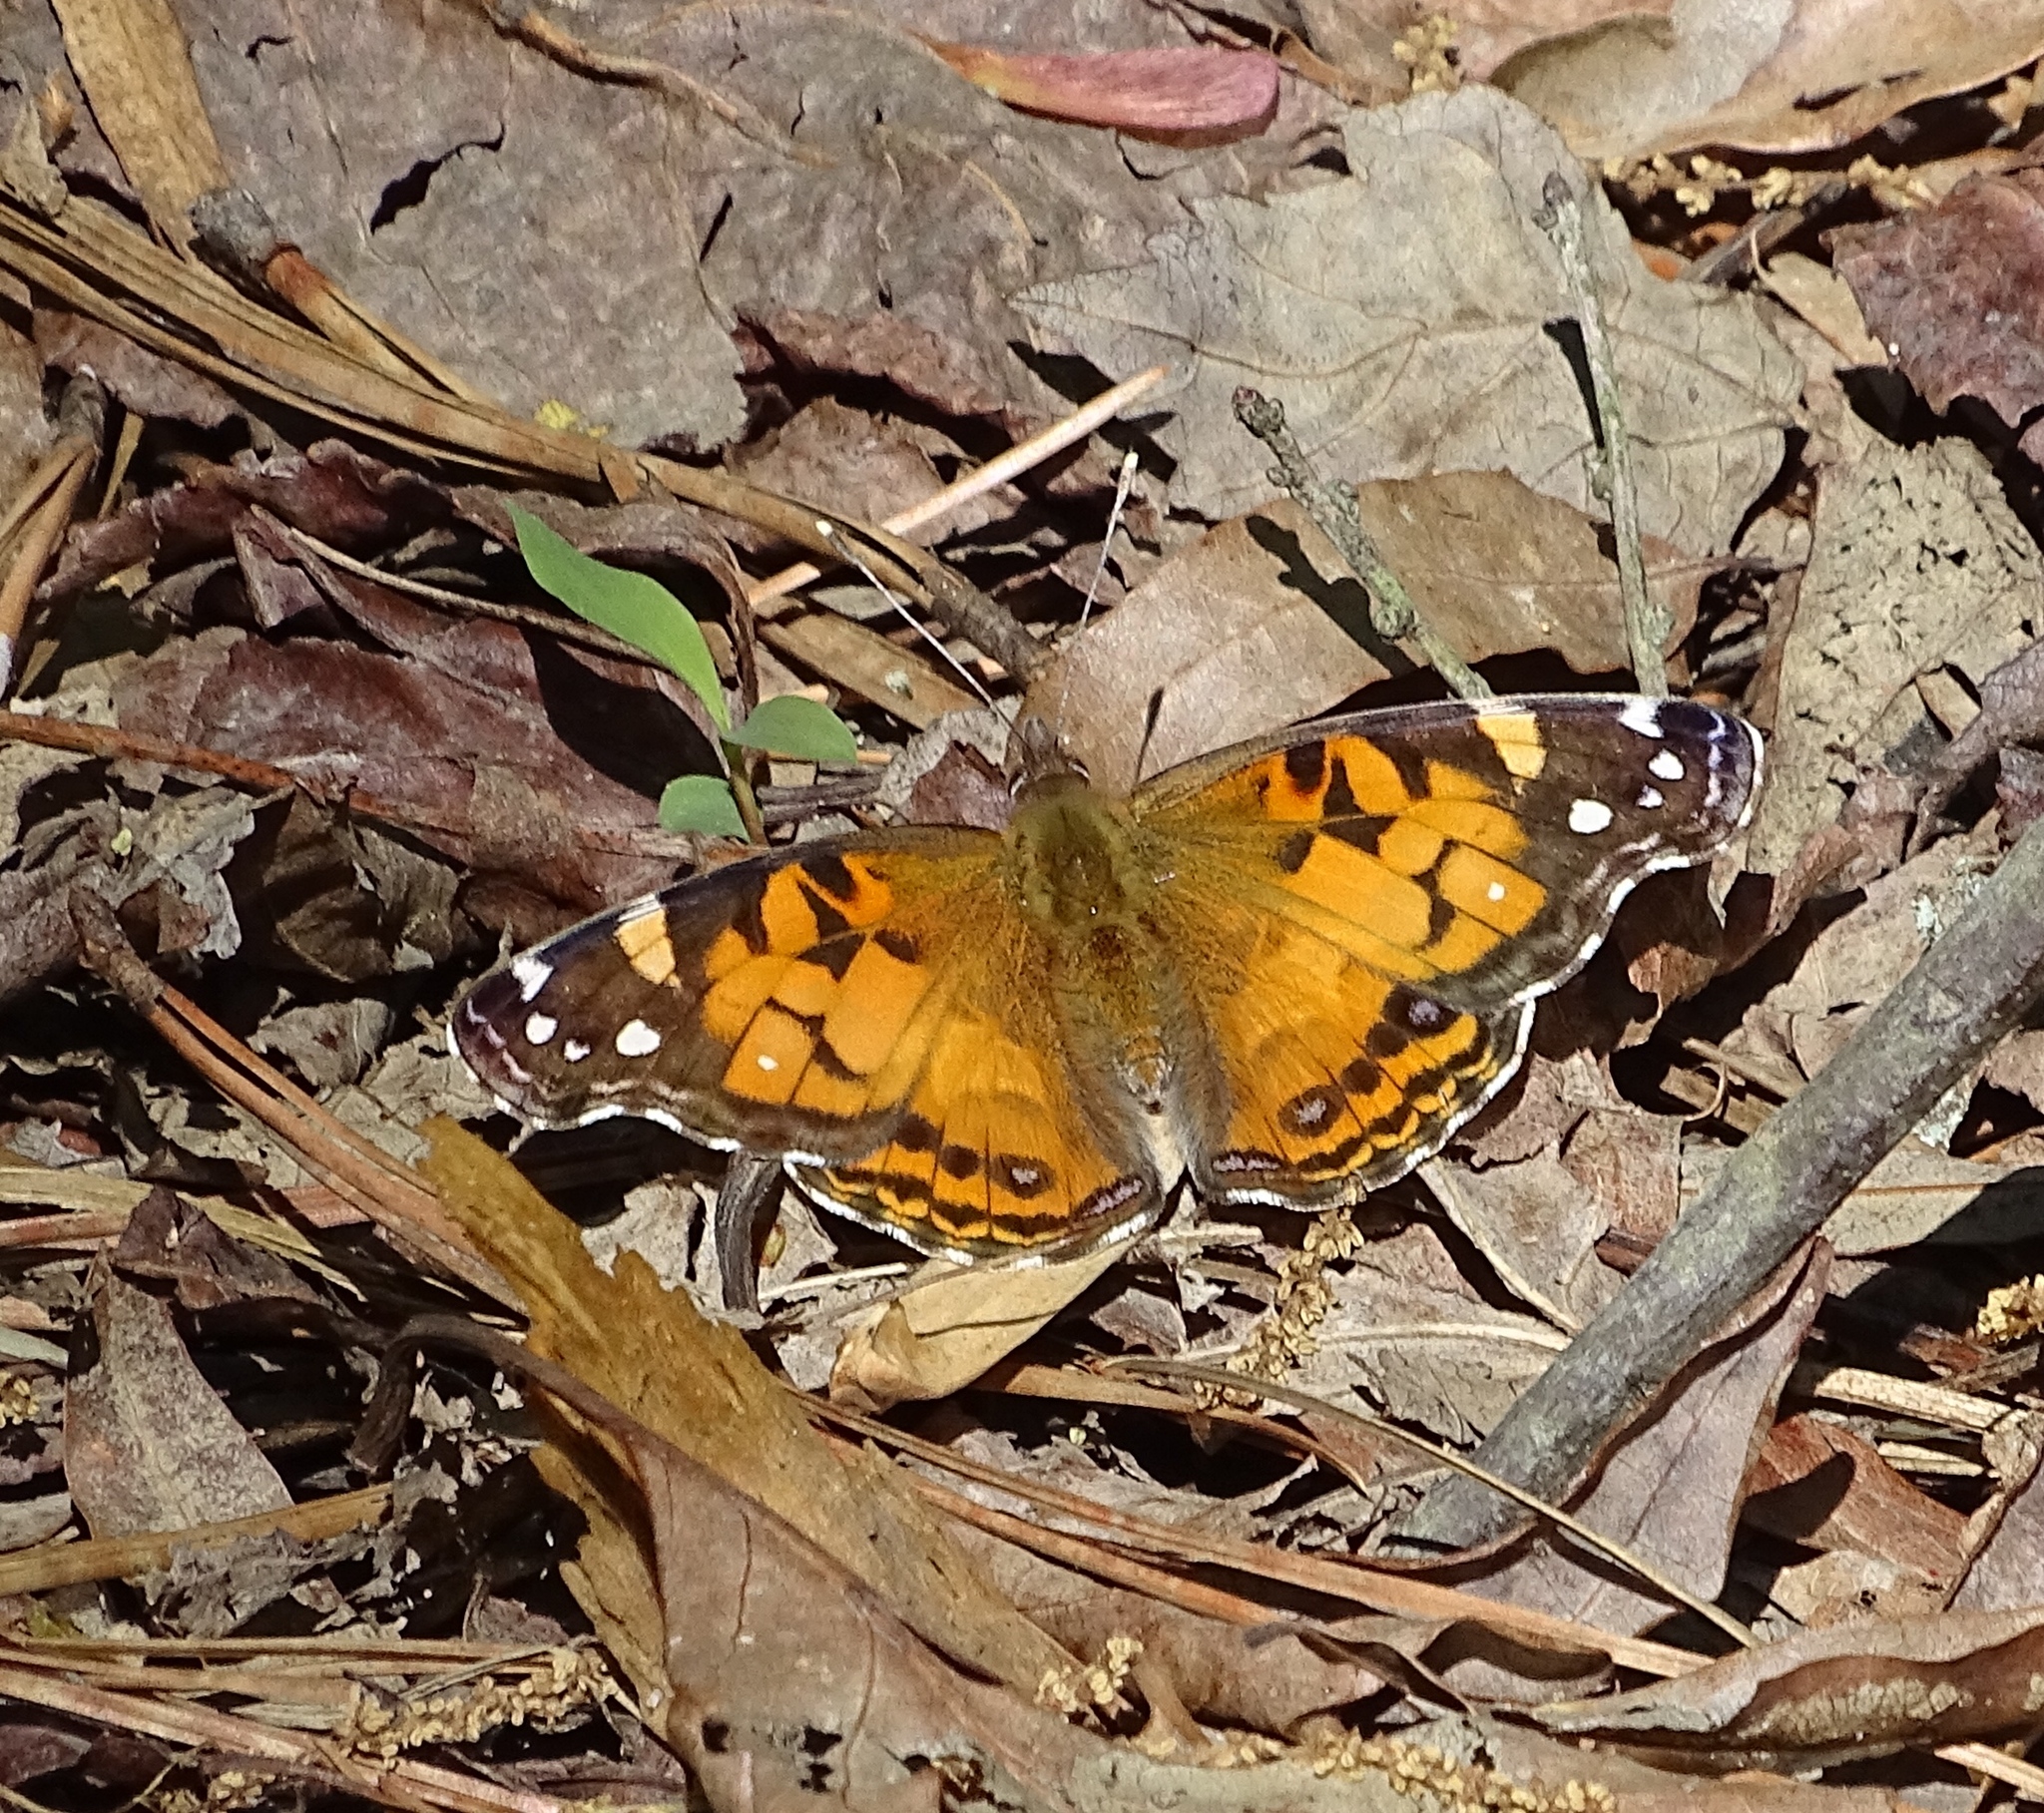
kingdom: Animalia
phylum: Arthropoda
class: Insecta
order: Lepidoptera
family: Nymphalidae
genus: Vanessa
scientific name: Vanessa virginiensis
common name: American lady
